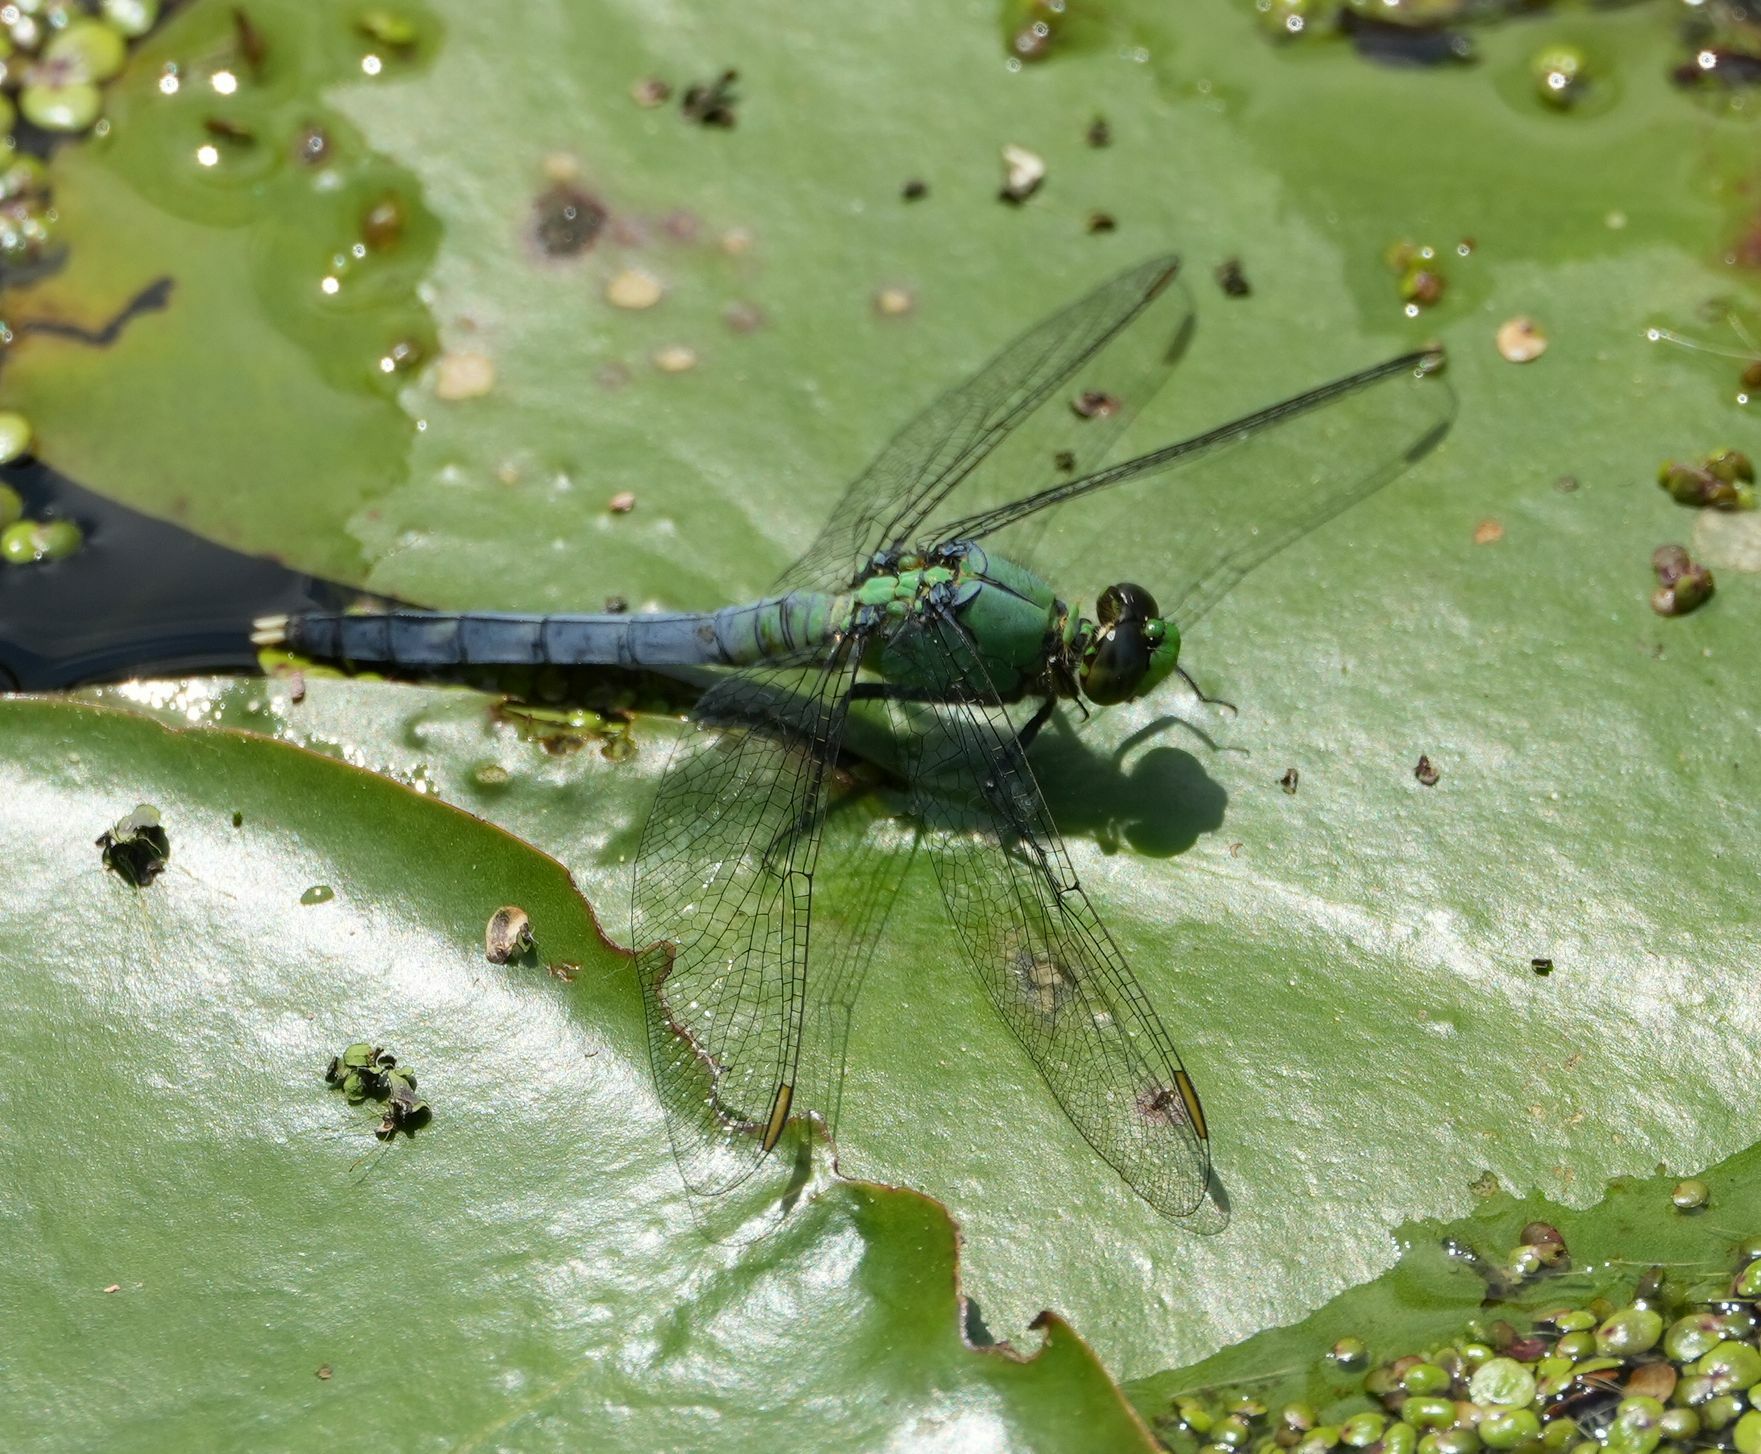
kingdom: Animalia
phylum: Arthropoda
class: Insecta
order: Odonata
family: Libellulidae
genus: Erythemis
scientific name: Erythemis simplicicollis
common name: Eastern pondhawk
